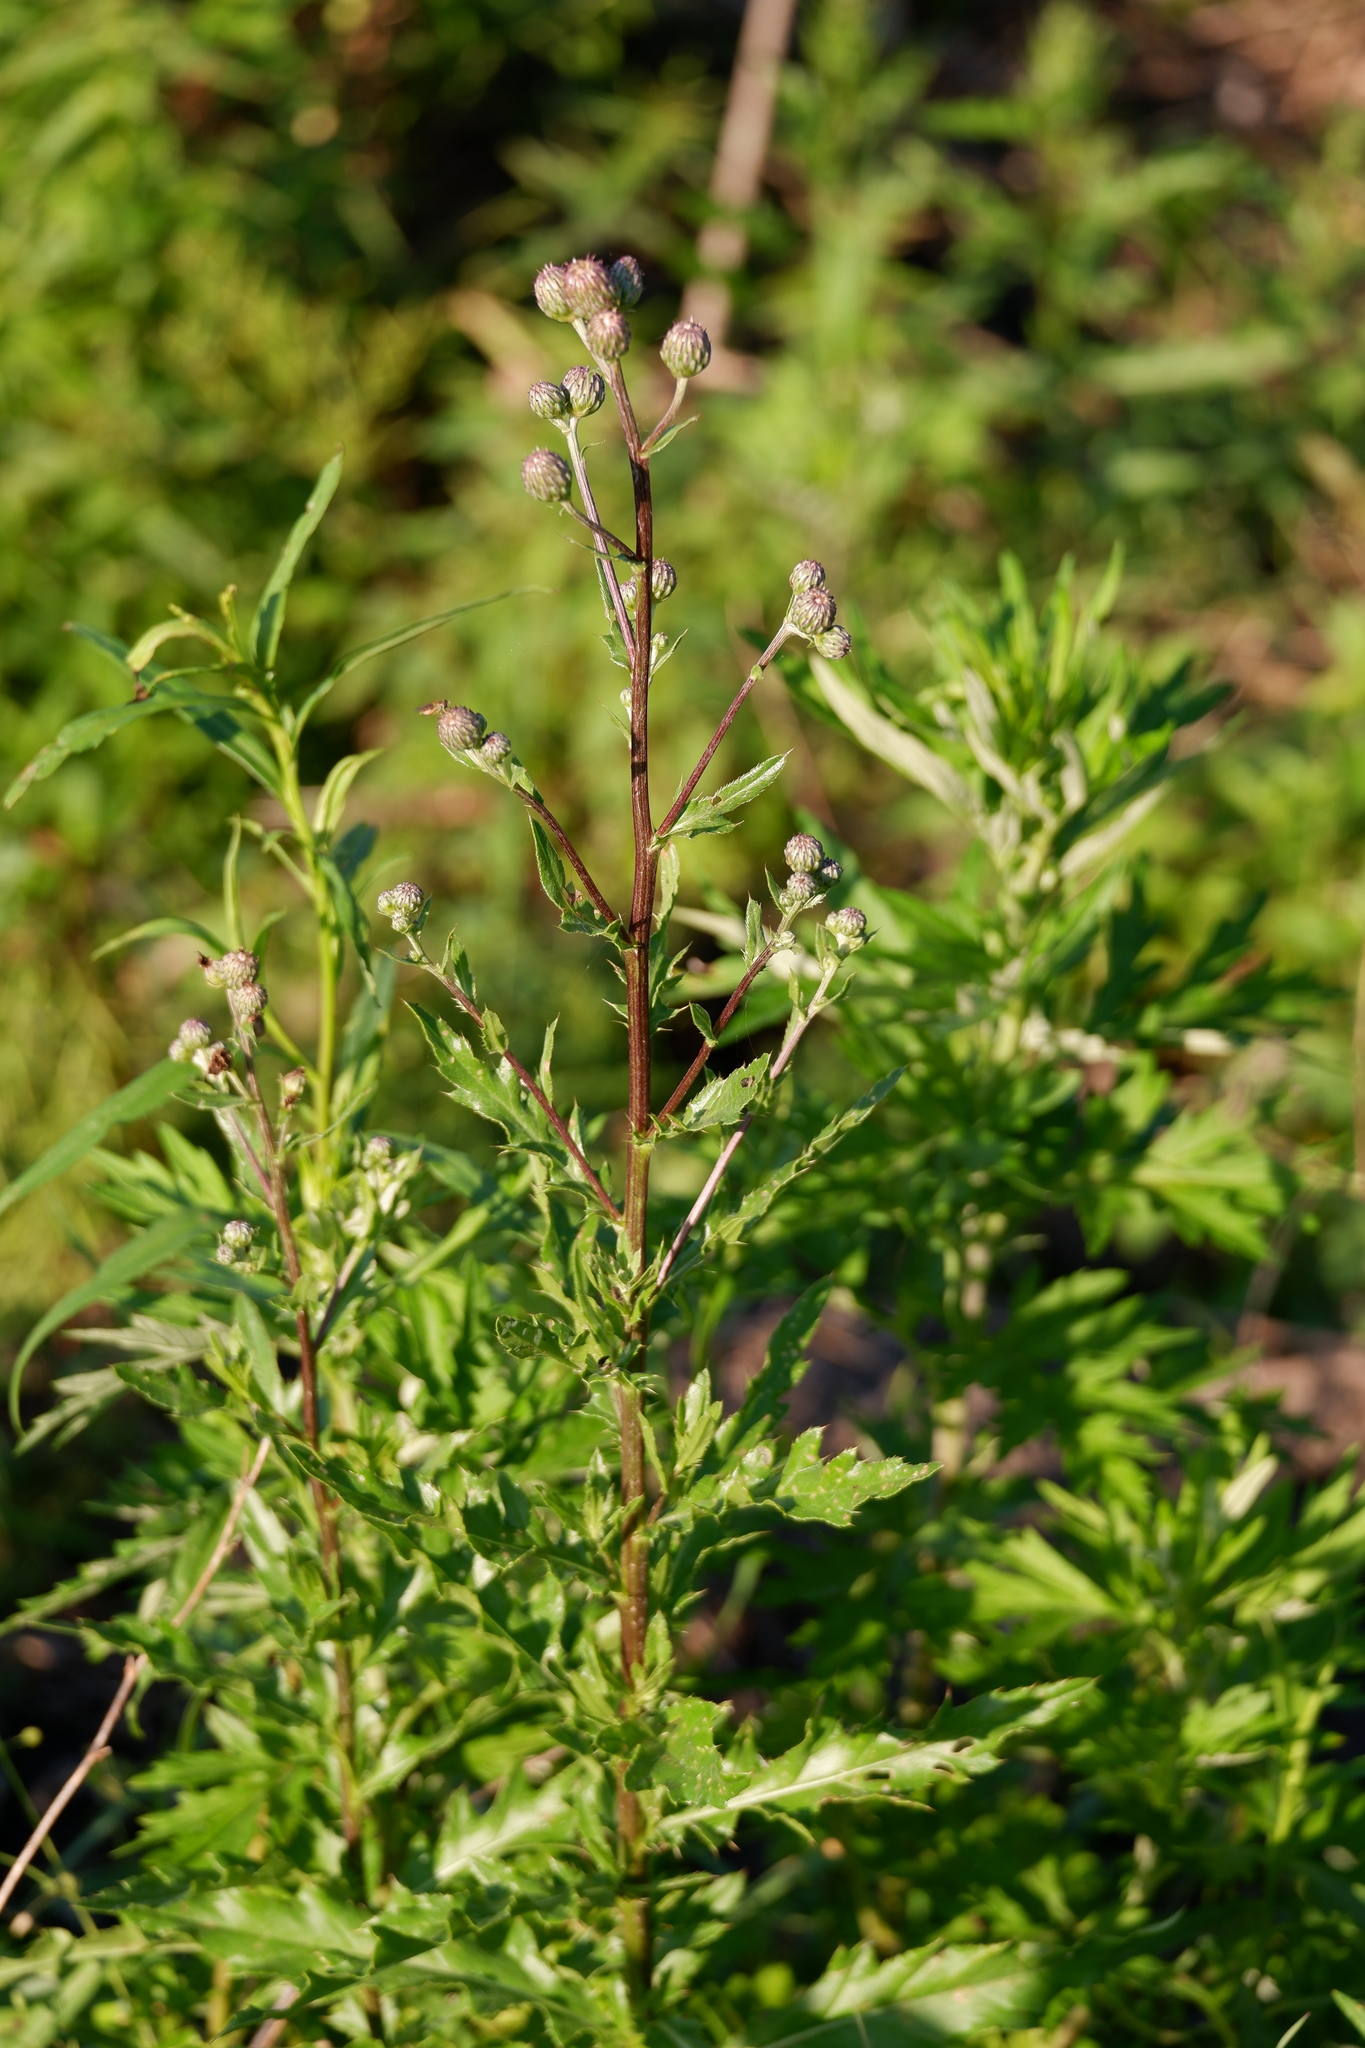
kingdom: Plantae
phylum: Tracheophyta
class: Magnoliopsida
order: Asterales
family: Asteraceae
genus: Cirsium
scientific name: Cirsium arvense
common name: Creeping thistle
